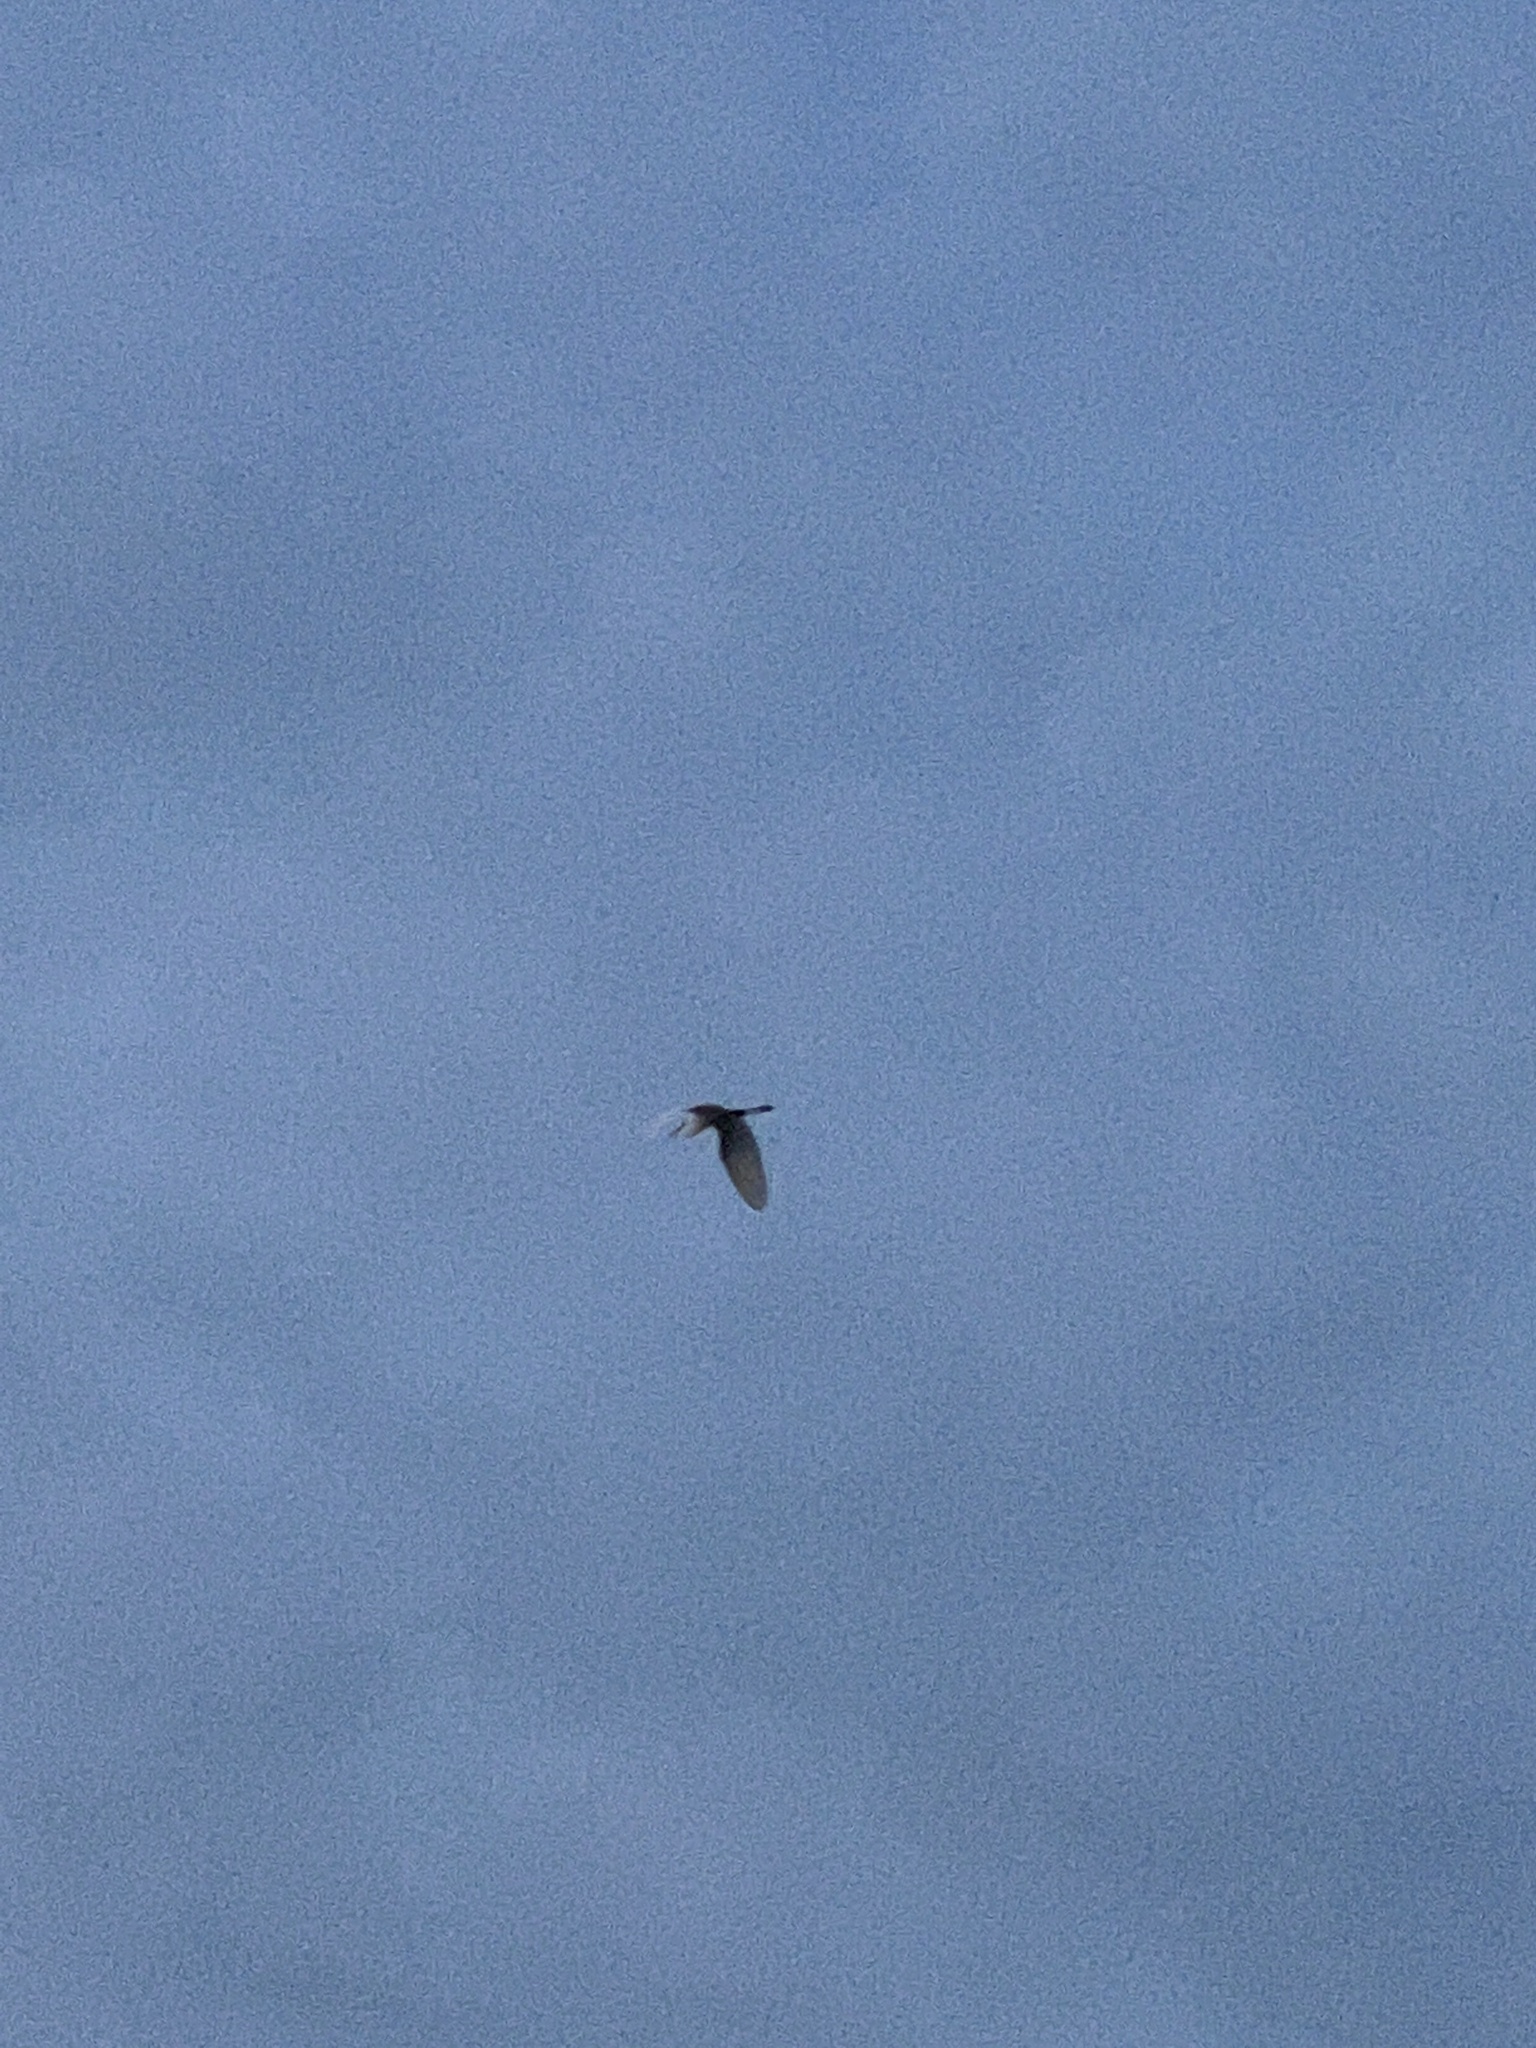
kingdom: Animalia
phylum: Chordata
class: Aves
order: Pelecaniformes
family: Ardeidae
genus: Ardea
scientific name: Ardea alba
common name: Great egret
